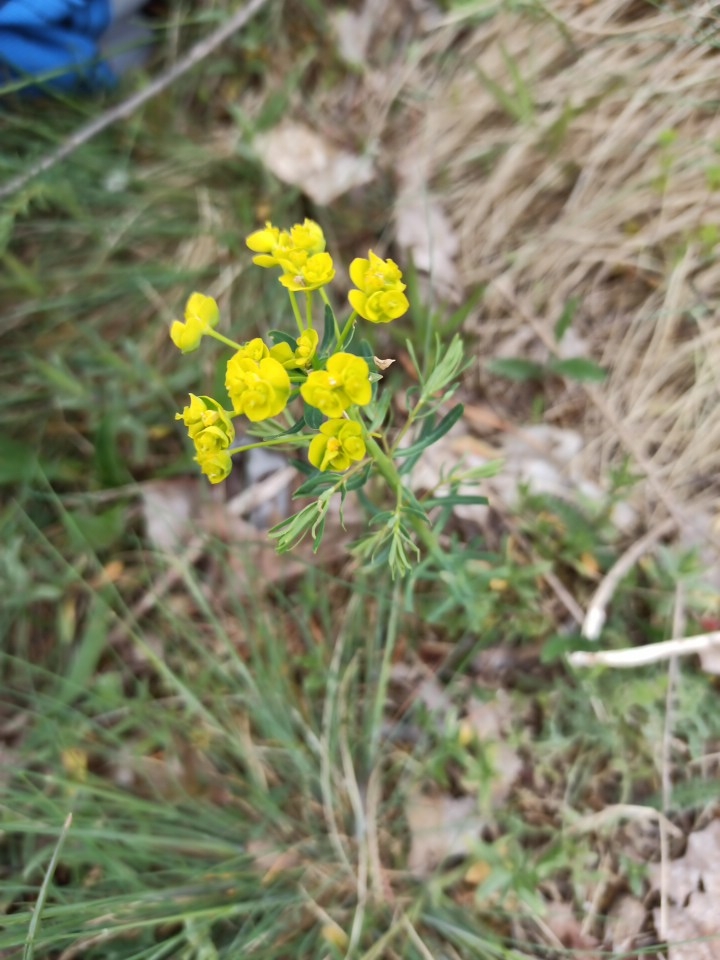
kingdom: Plantae
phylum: Tracheophyta
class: Magnoliopsida
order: Malpighiales
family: Euphorbiaceae
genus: Euphorbia
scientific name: Euphorbia cyparissias
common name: Cypress spurge
